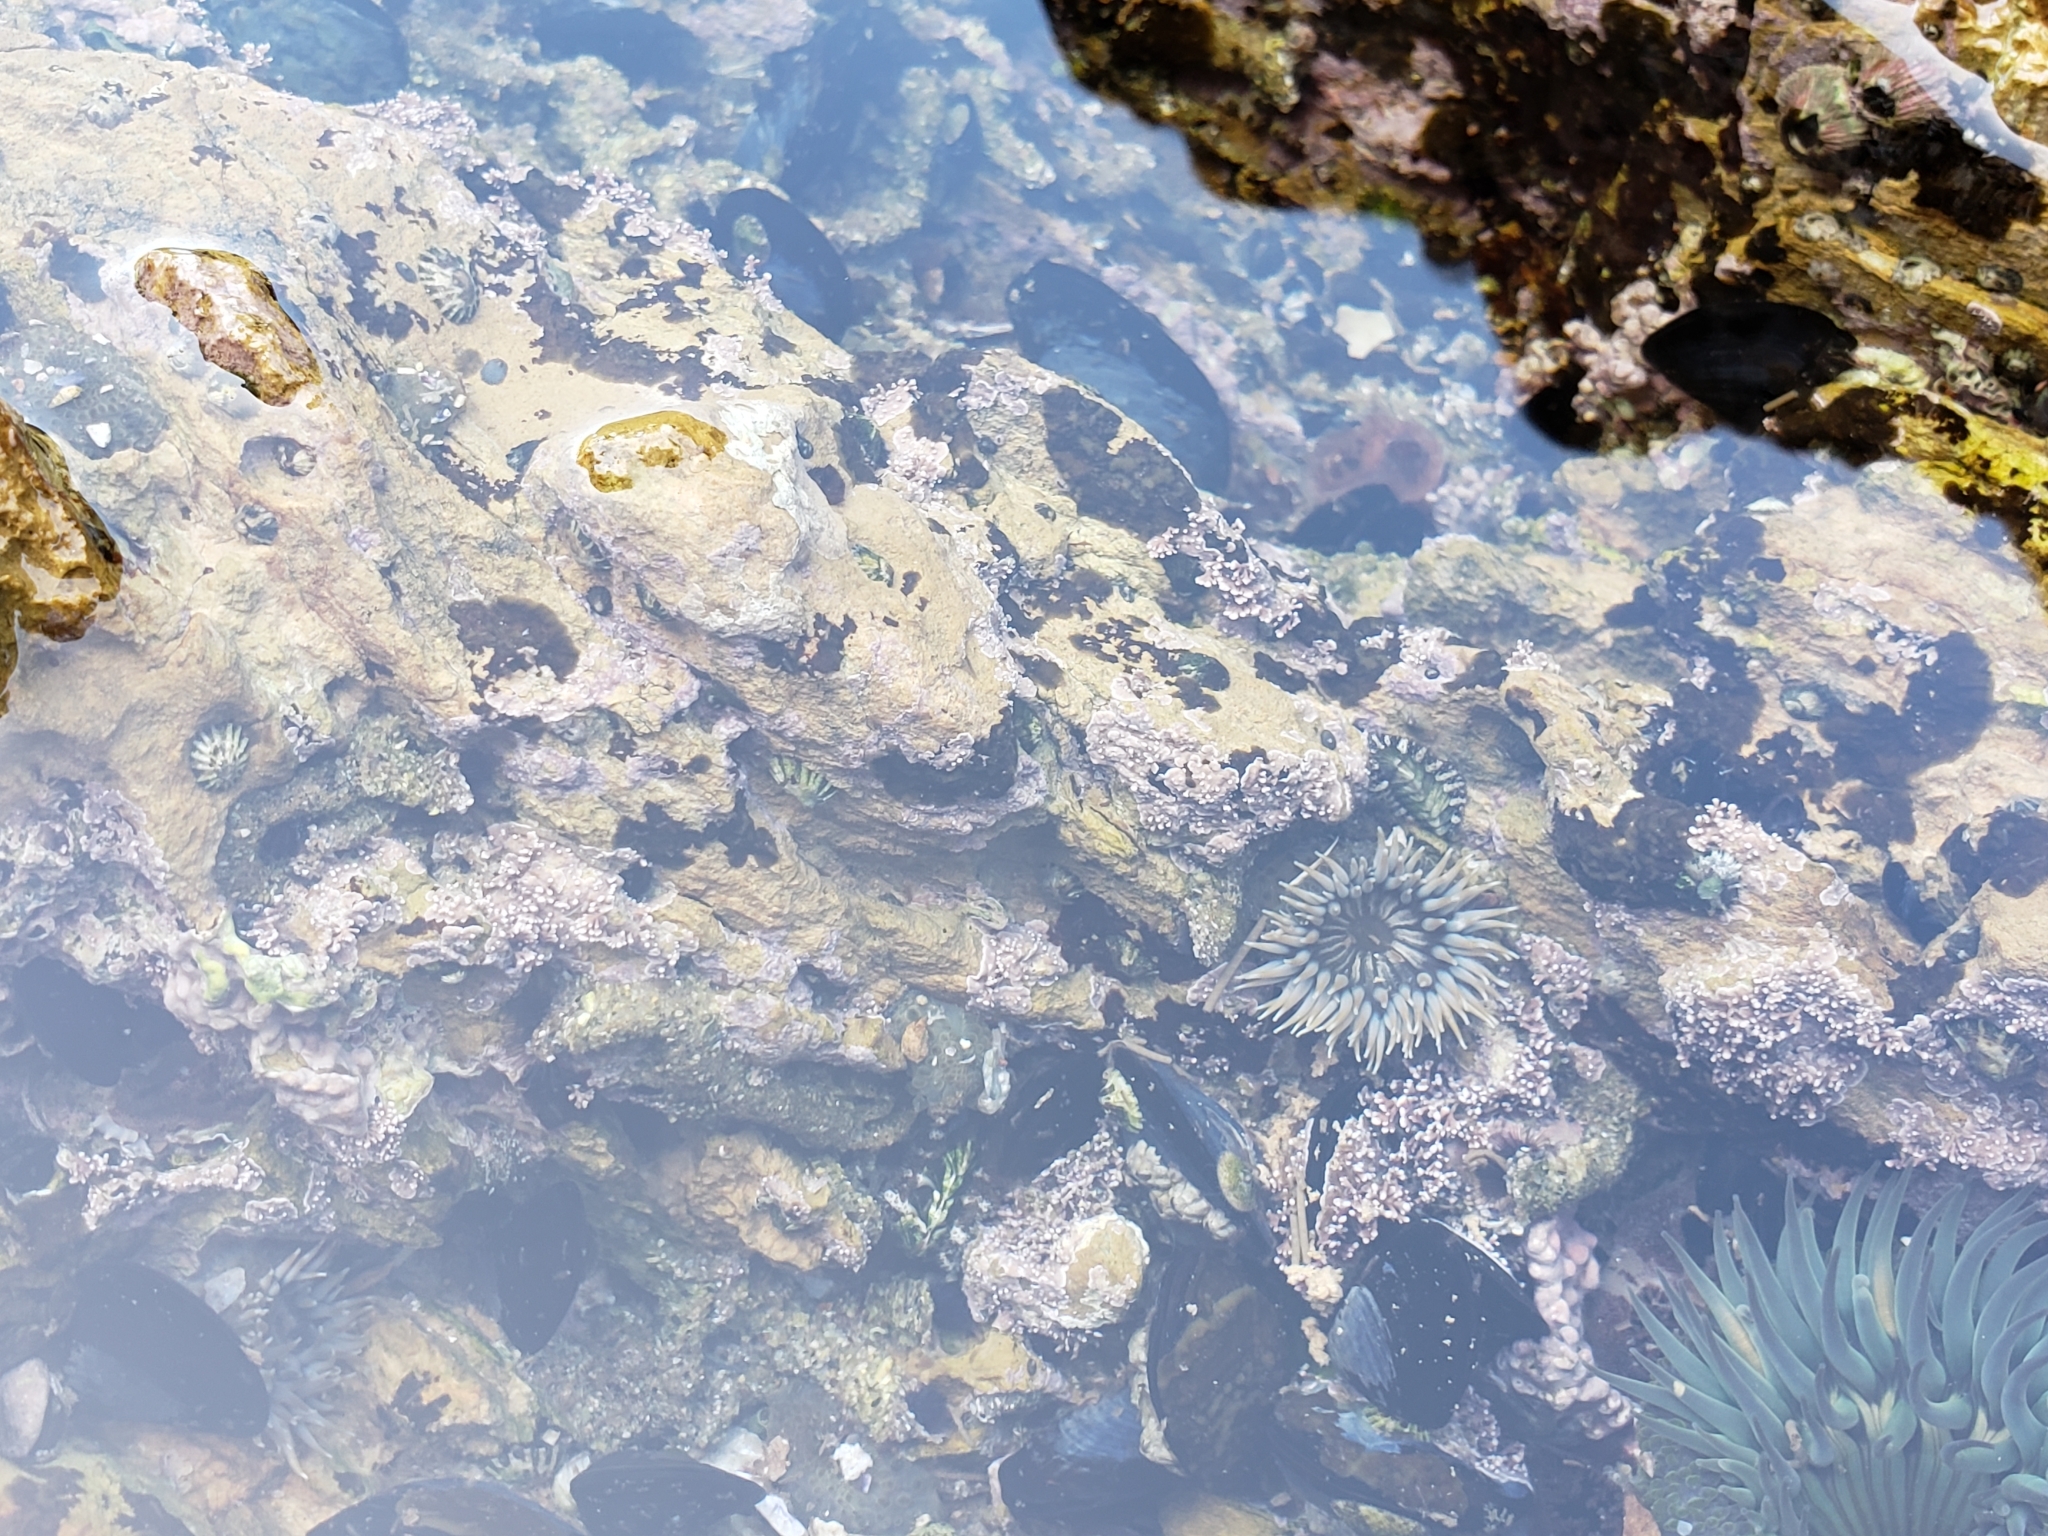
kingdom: Animalia
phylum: Cnidaria
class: Anthozoa
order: Actiniaria
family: Actiniidae
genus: Anthopleura
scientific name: Anthopleura elegantissima
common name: Clonal anemone
